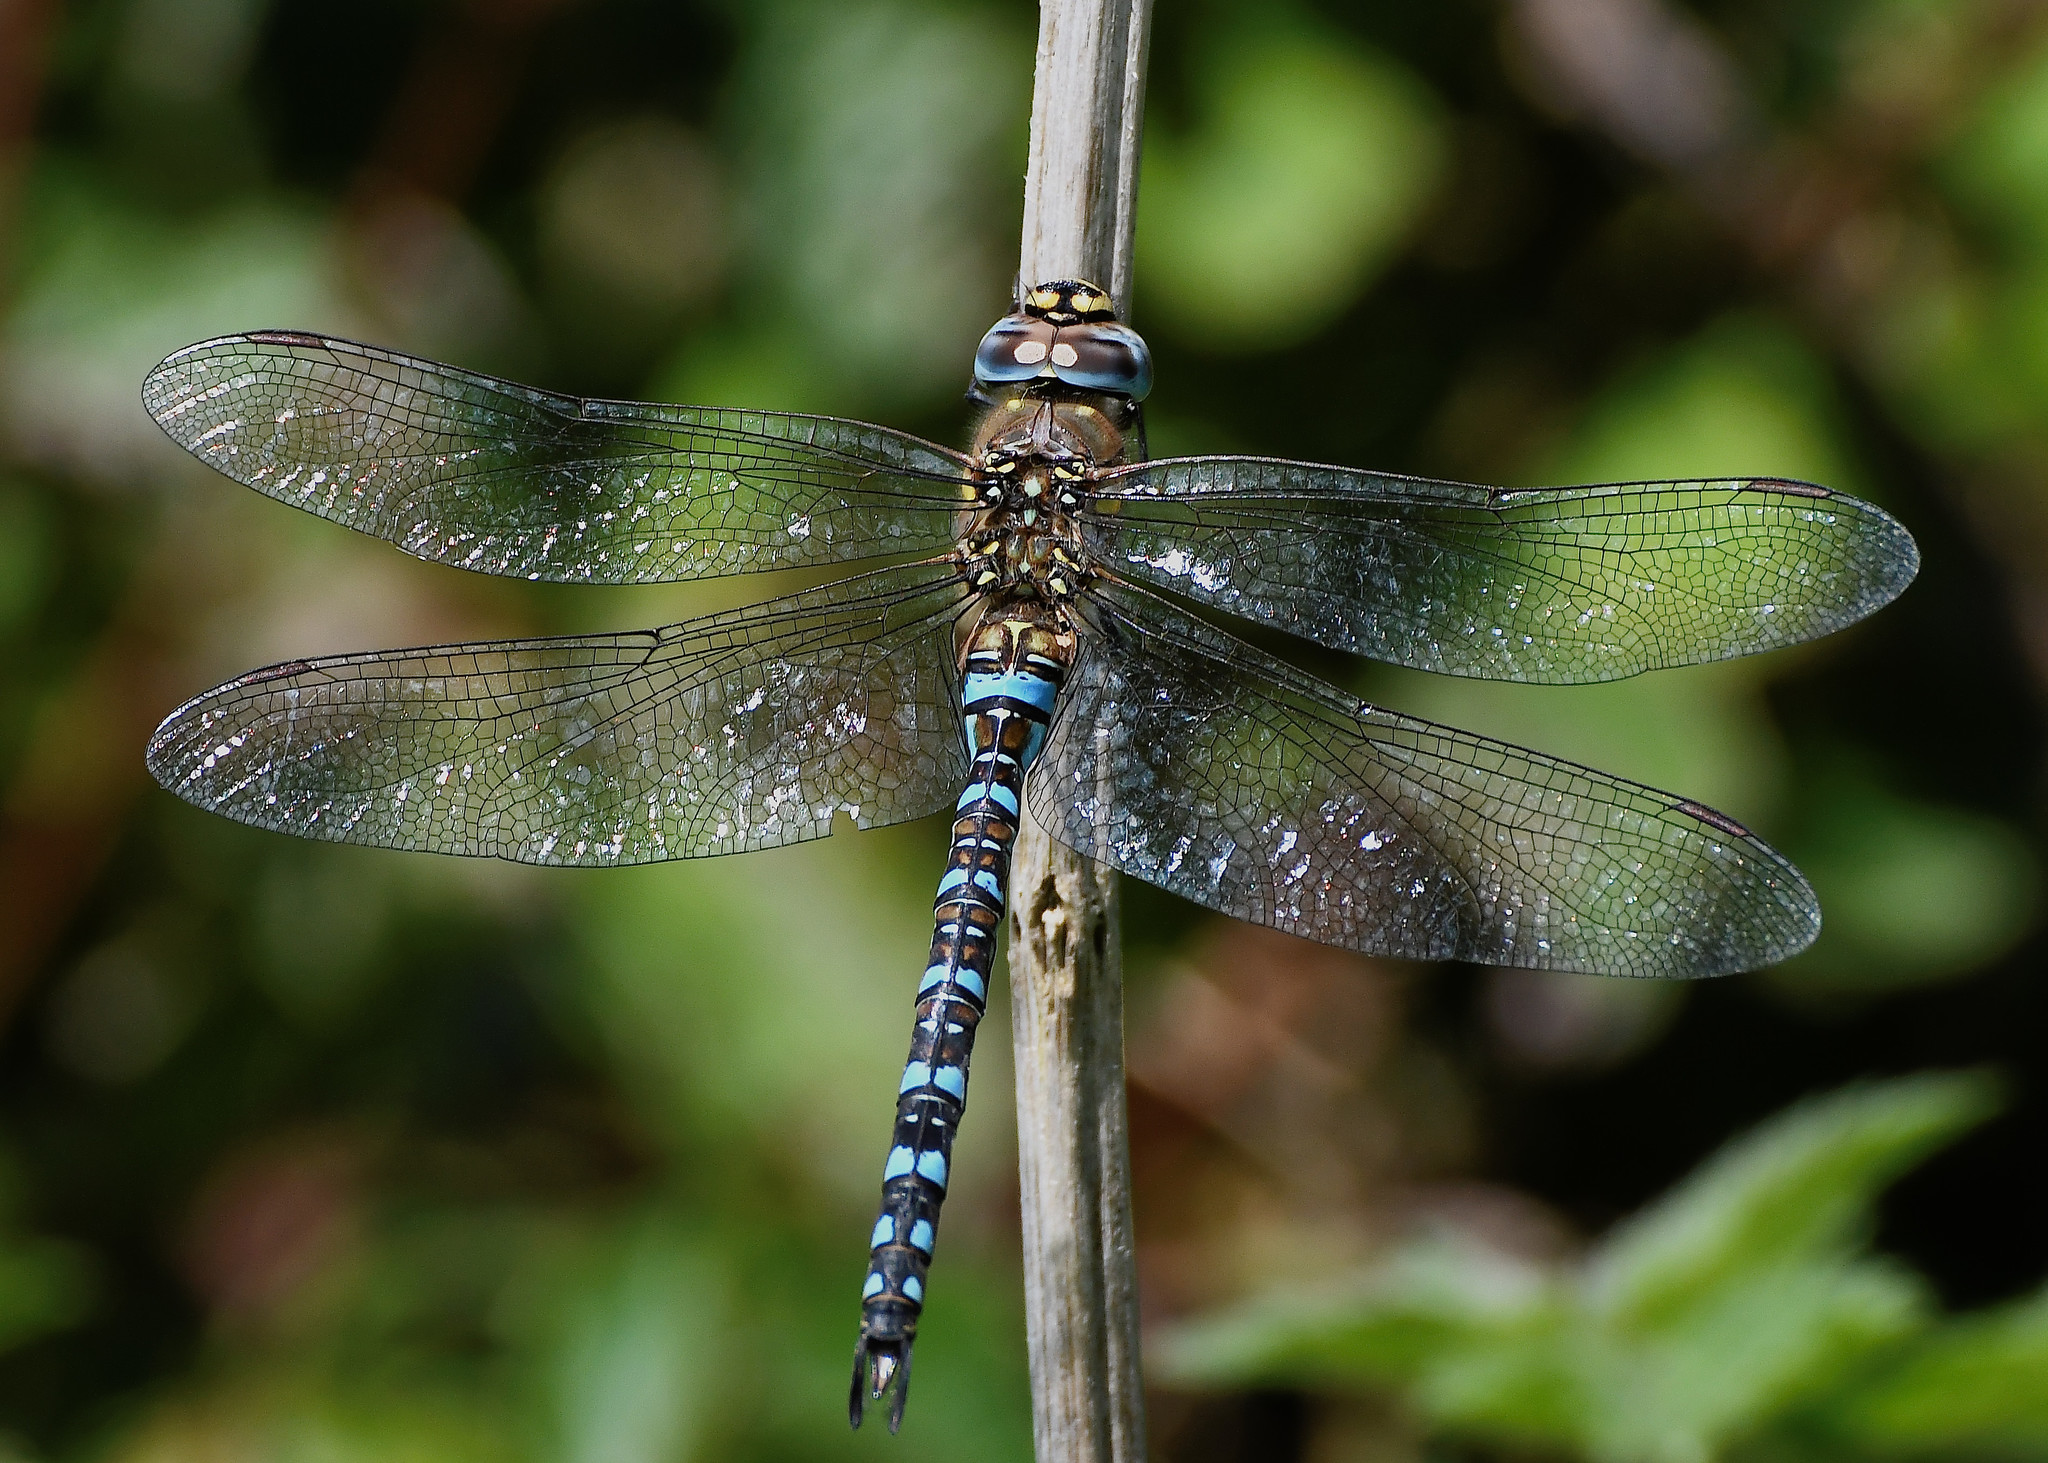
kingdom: Animalia
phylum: Arthropoda
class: Insecta
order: Odonata
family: Aeshnidae
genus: Aeshna
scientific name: Aeshna mixta
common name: Migrant hawker
